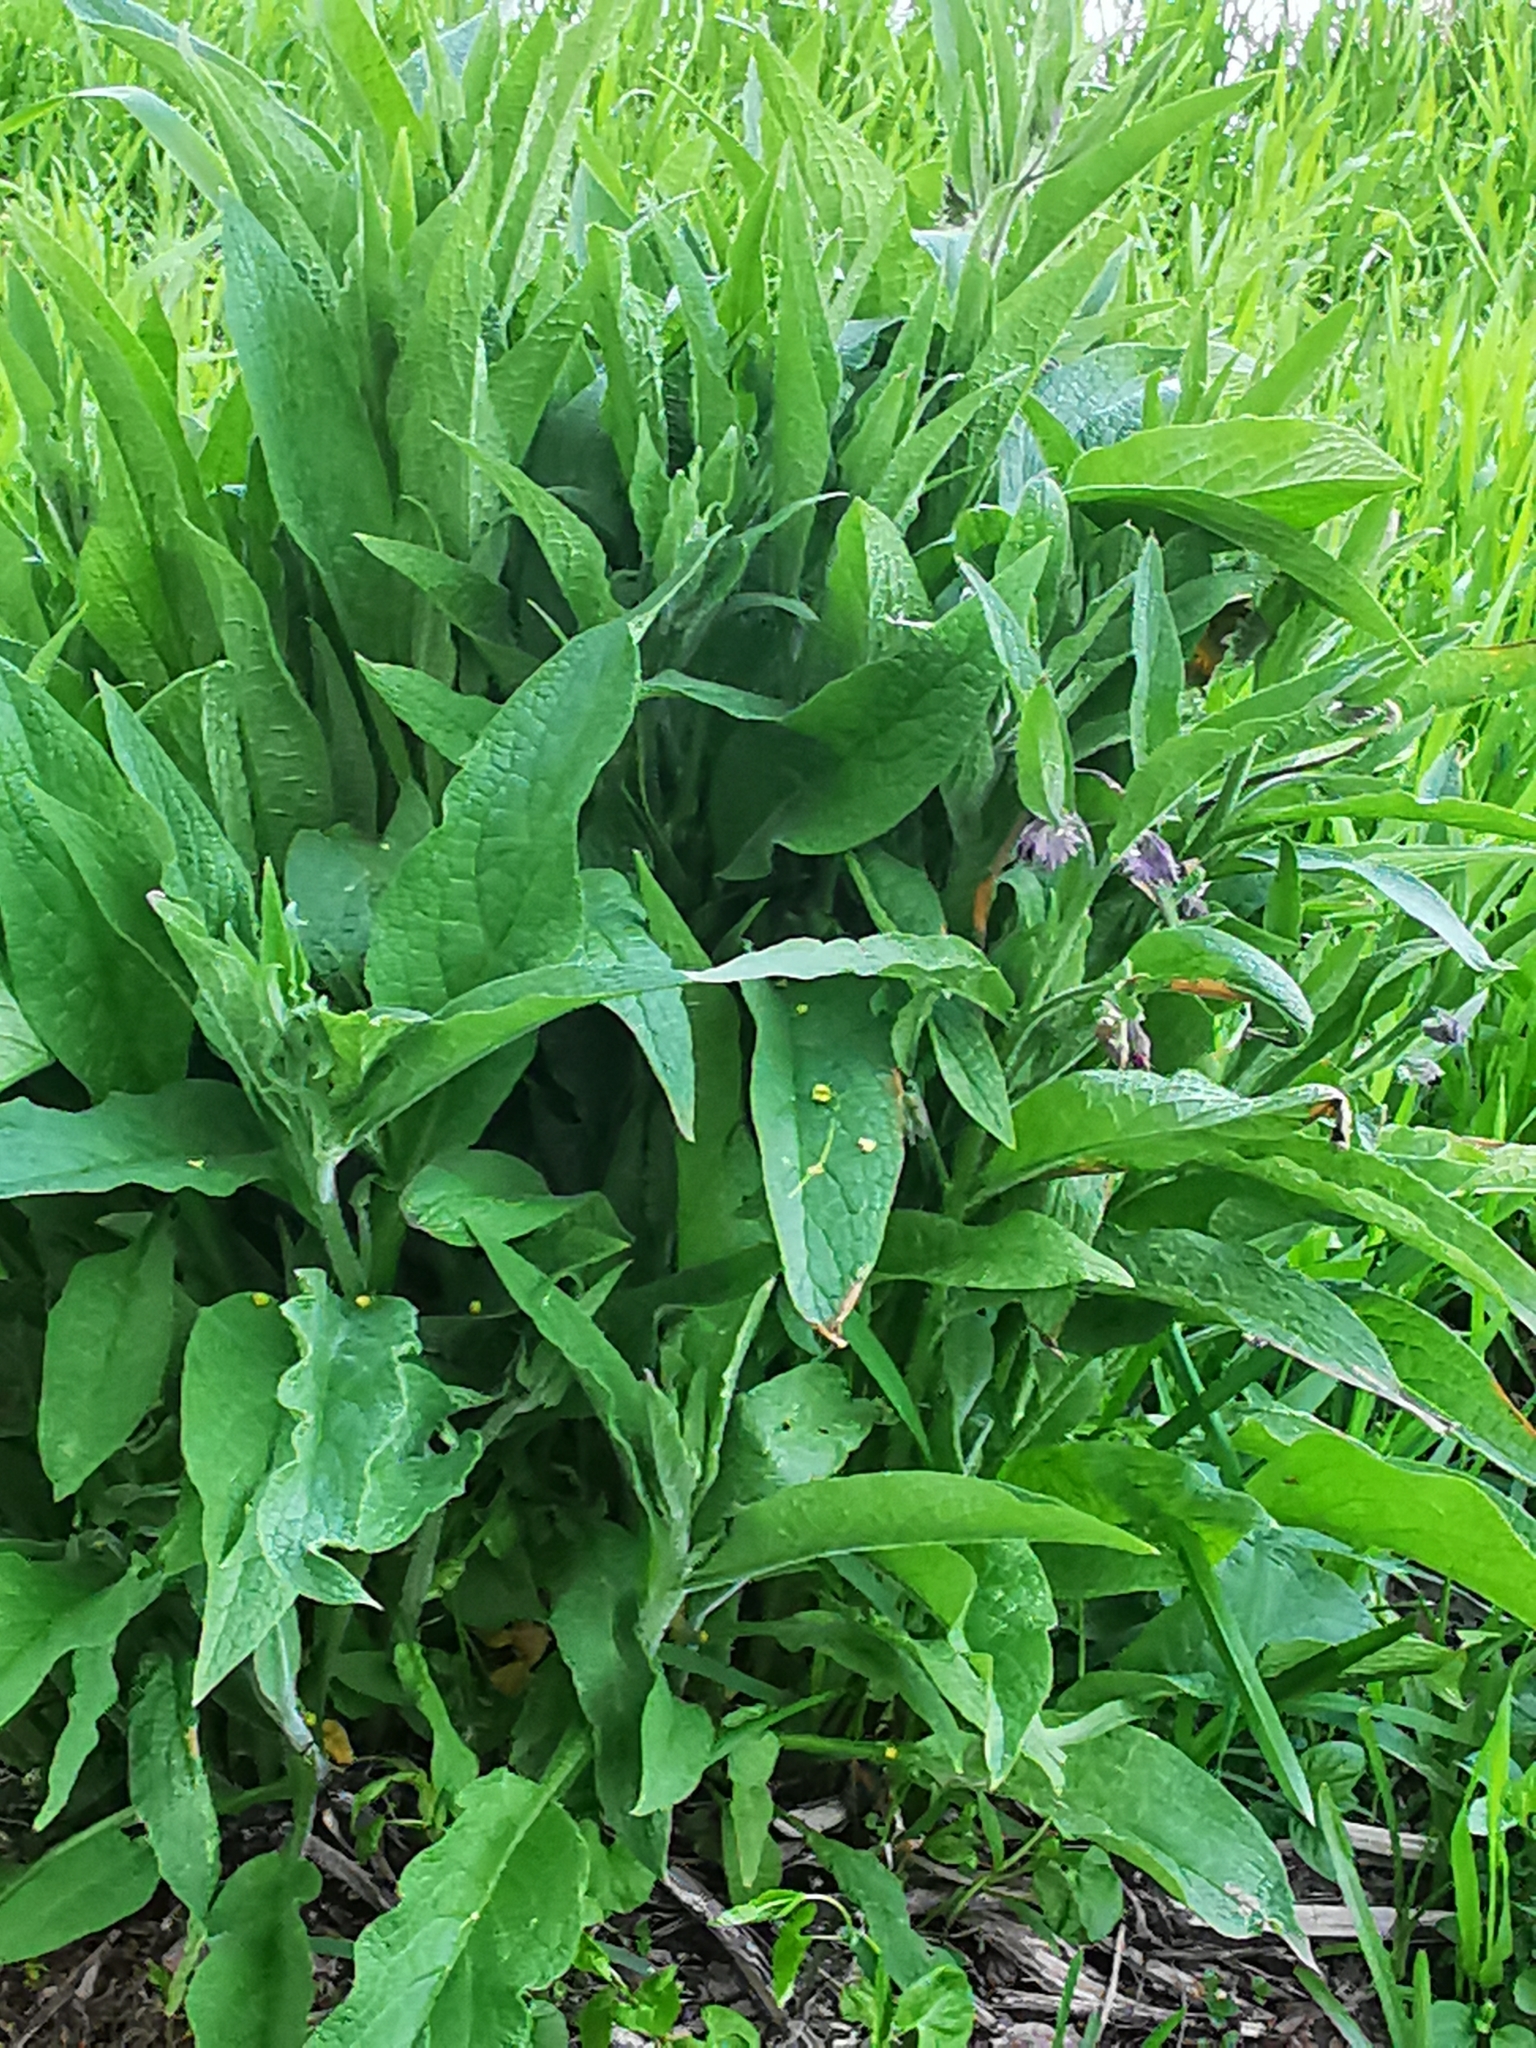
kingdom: Plantae
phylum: Tracheophyta
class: Magnoliopsida
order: Boraginales
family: Boraginaceae
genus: Symphytum
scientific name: Symphytum officinale
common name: Common comfrey
